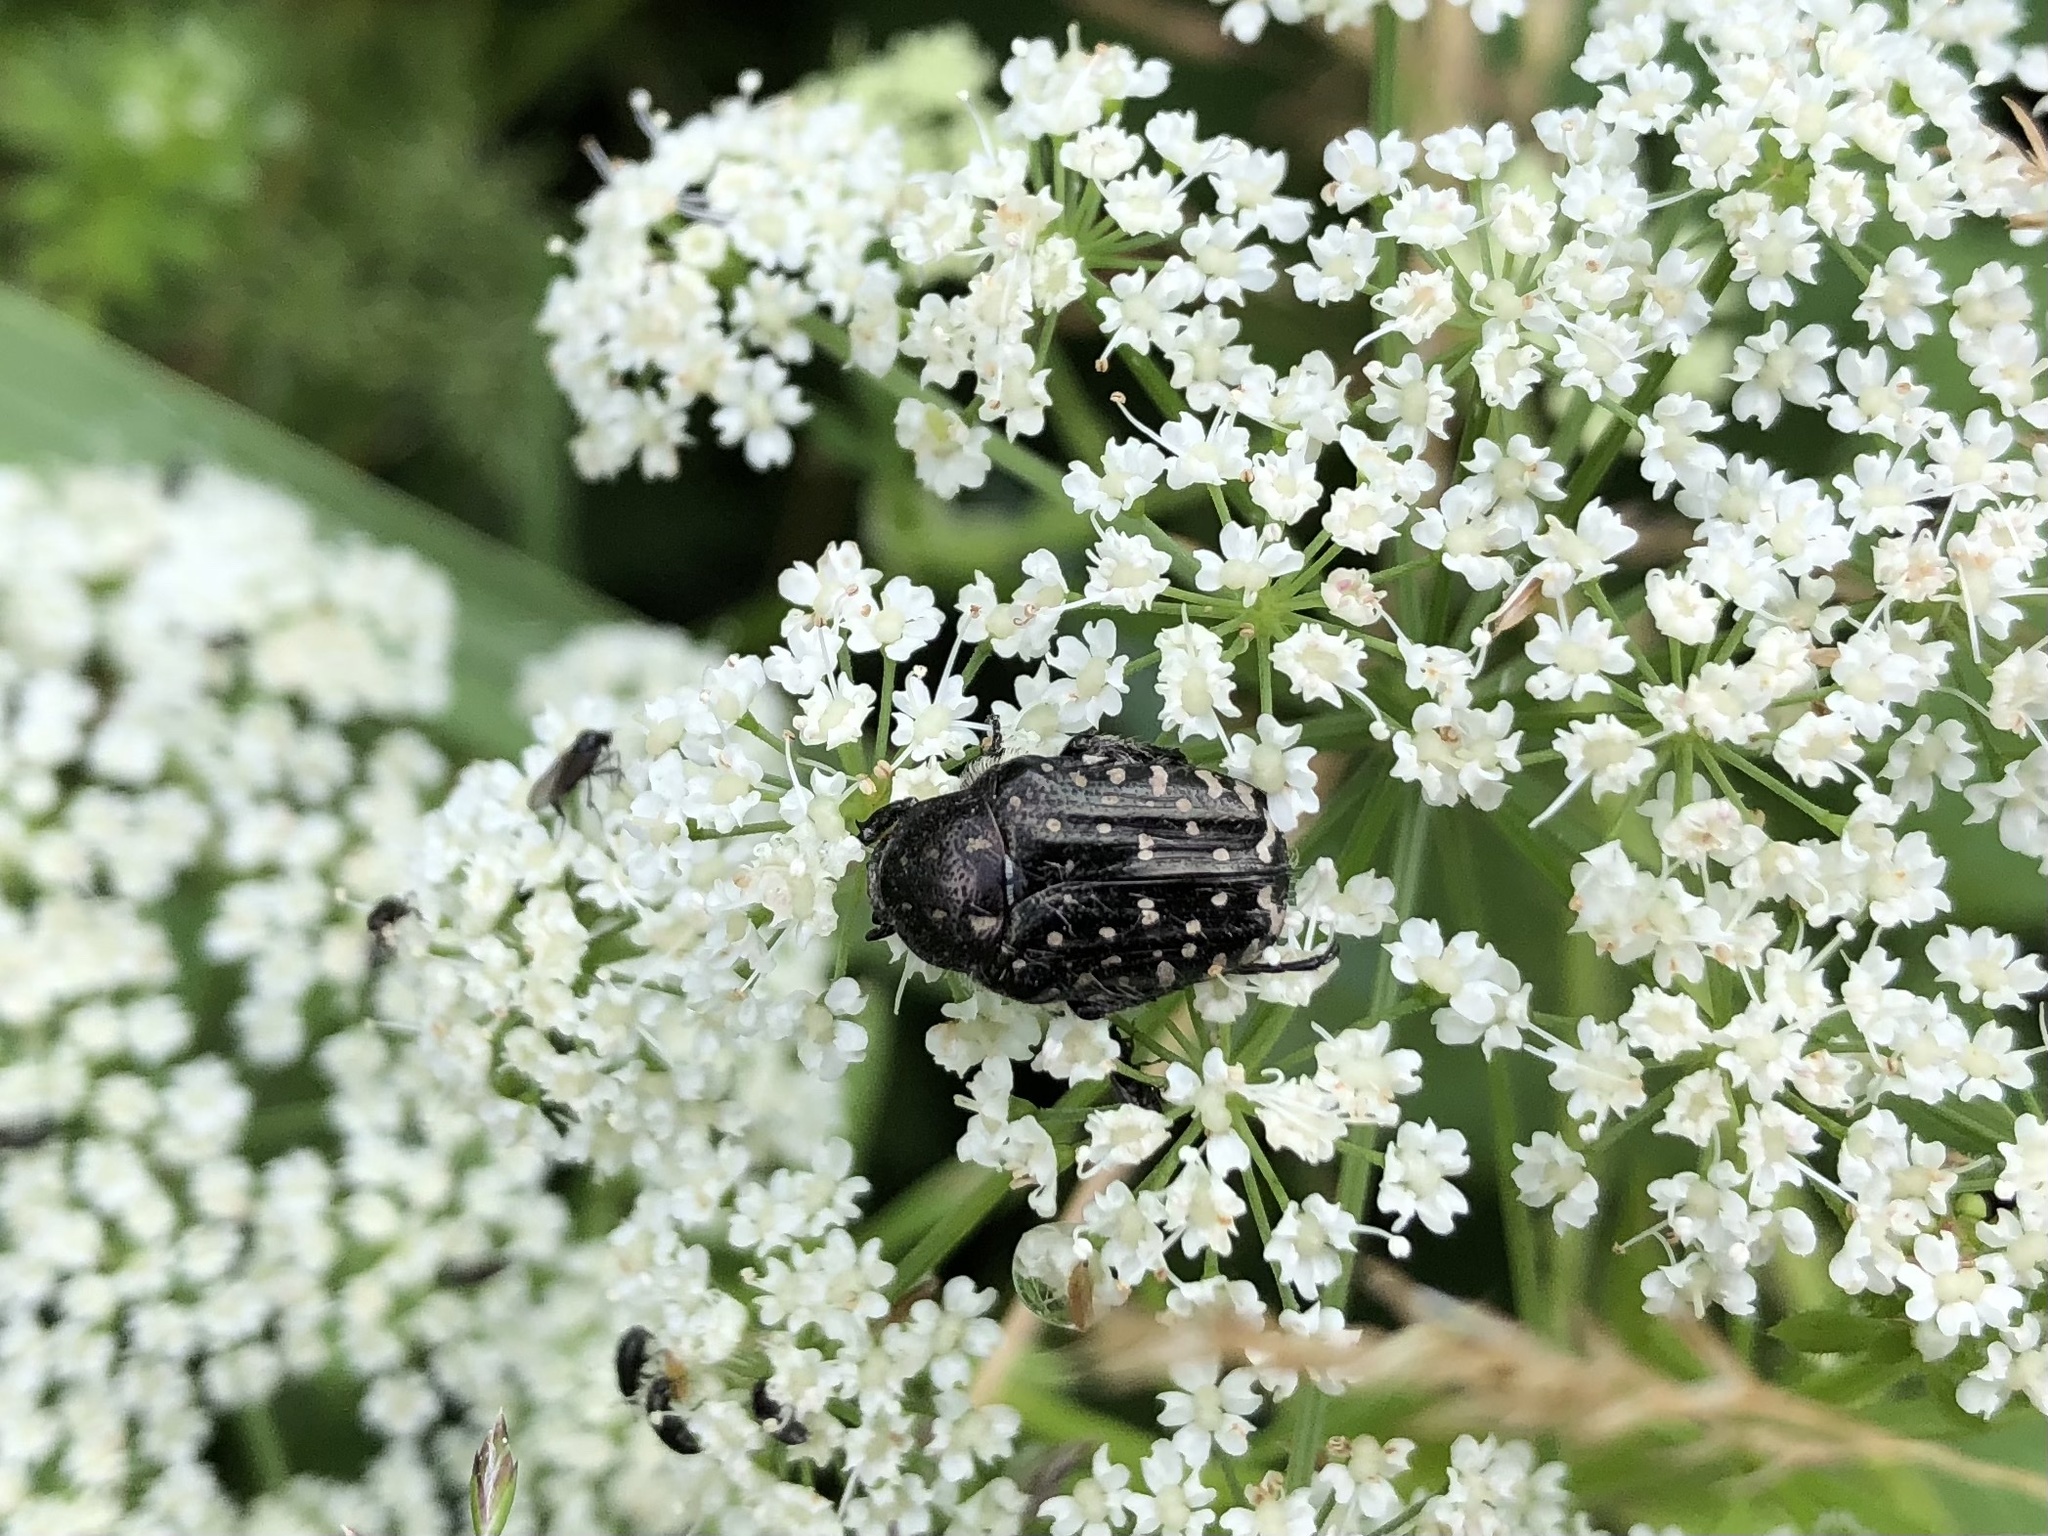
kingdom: Animalia
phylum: Arthropoda
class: Insecta
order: Coleoptera
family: Scarabaeidae
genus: Oxythyrea
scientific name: Oxythyrea funesta
